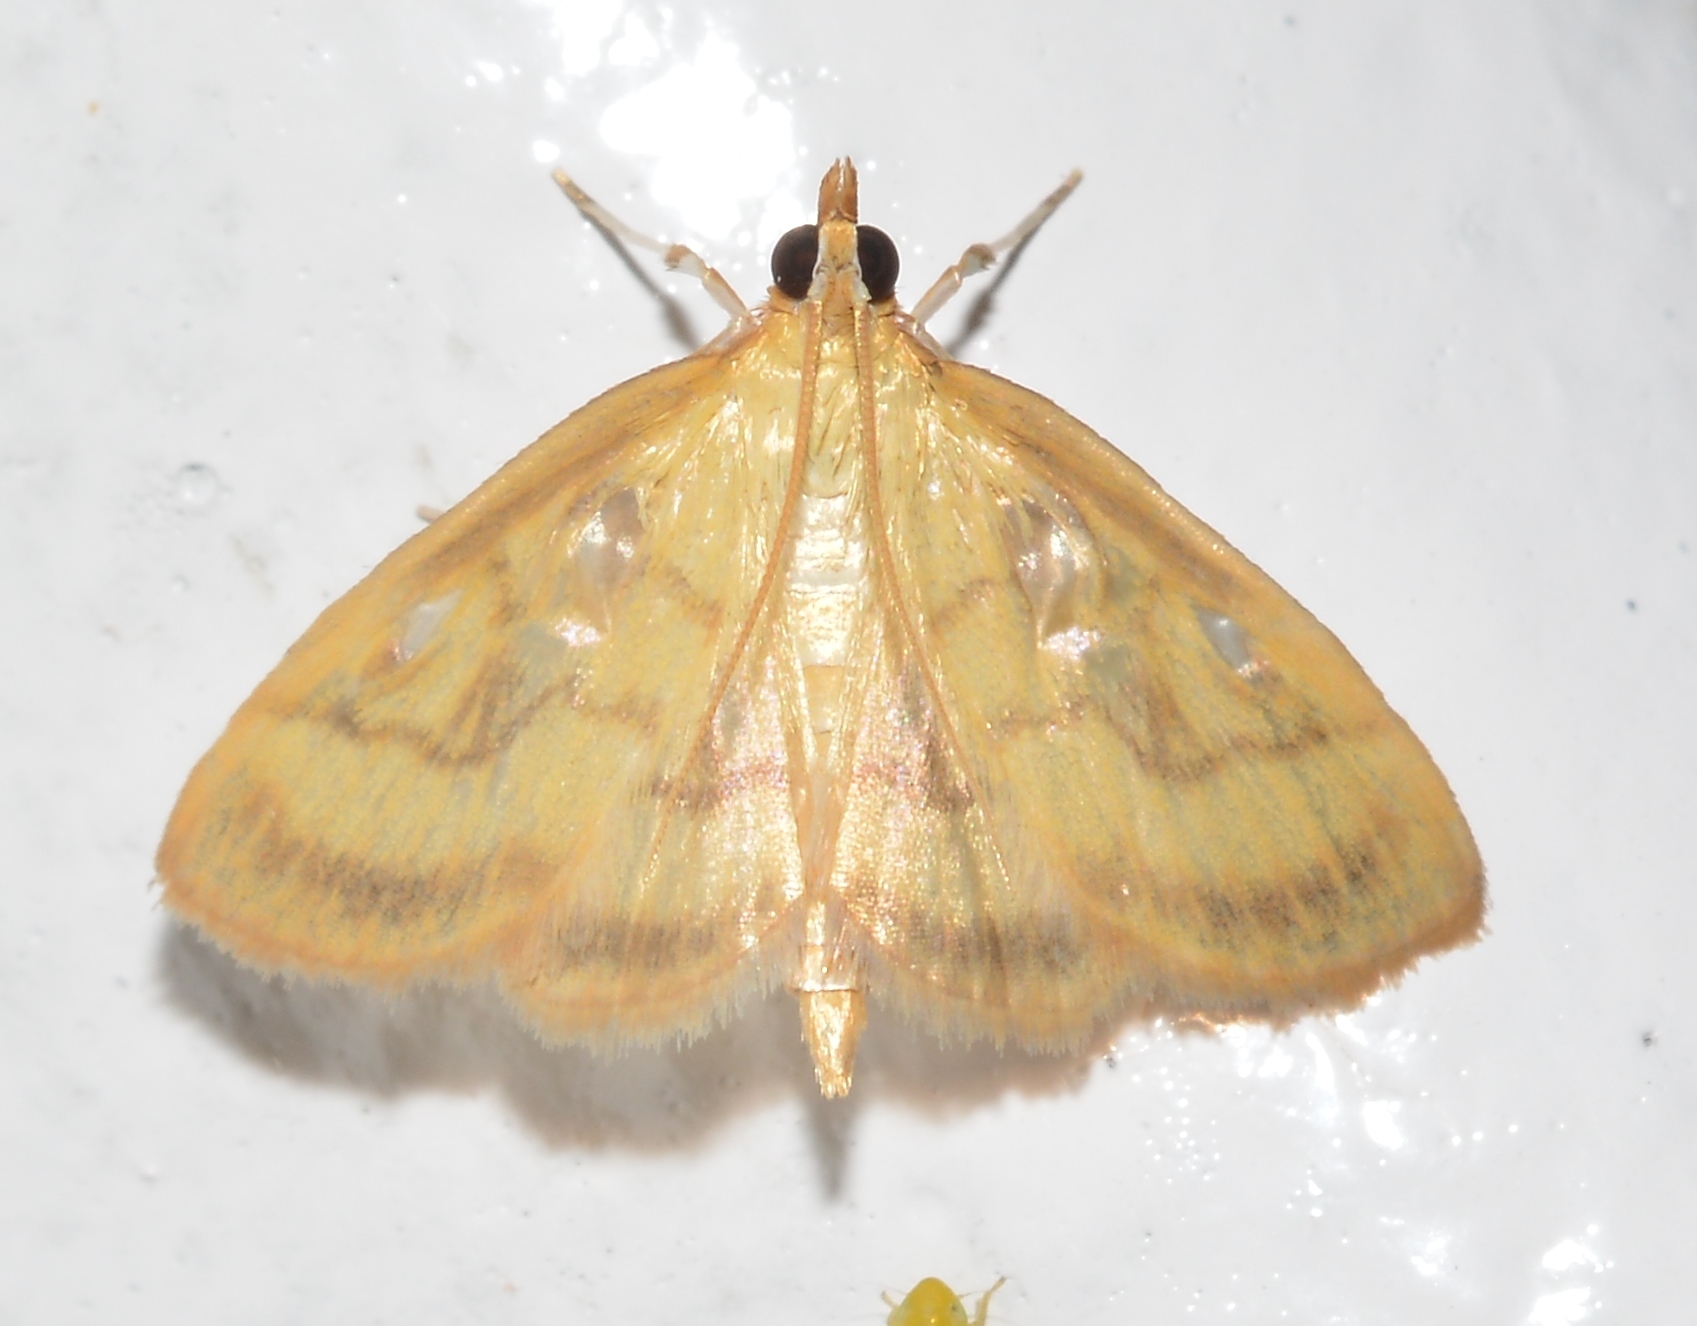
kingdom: Animalia
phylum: Arthropoda
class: Insecta
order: Lepidoptera
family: Crambidae
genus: Crocidophora
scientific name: Crocidophora tuberculalis
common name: Pale-winged crocidiphora moth
